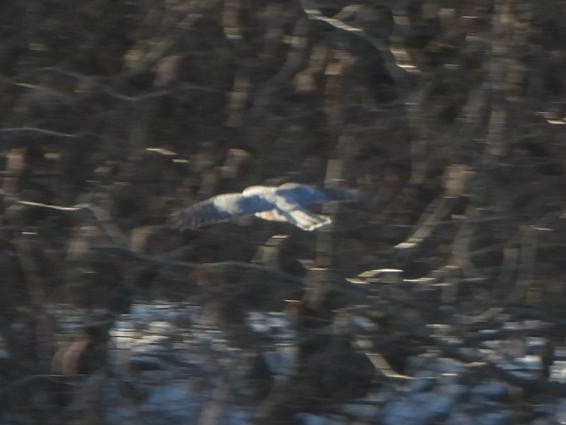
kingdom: Animalia
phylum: Chordata
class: Aves
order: Accipitriformes
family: Accipitridae
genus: Accipiter
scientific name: Accipiter striatus
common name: Sharp-shinned hawk
